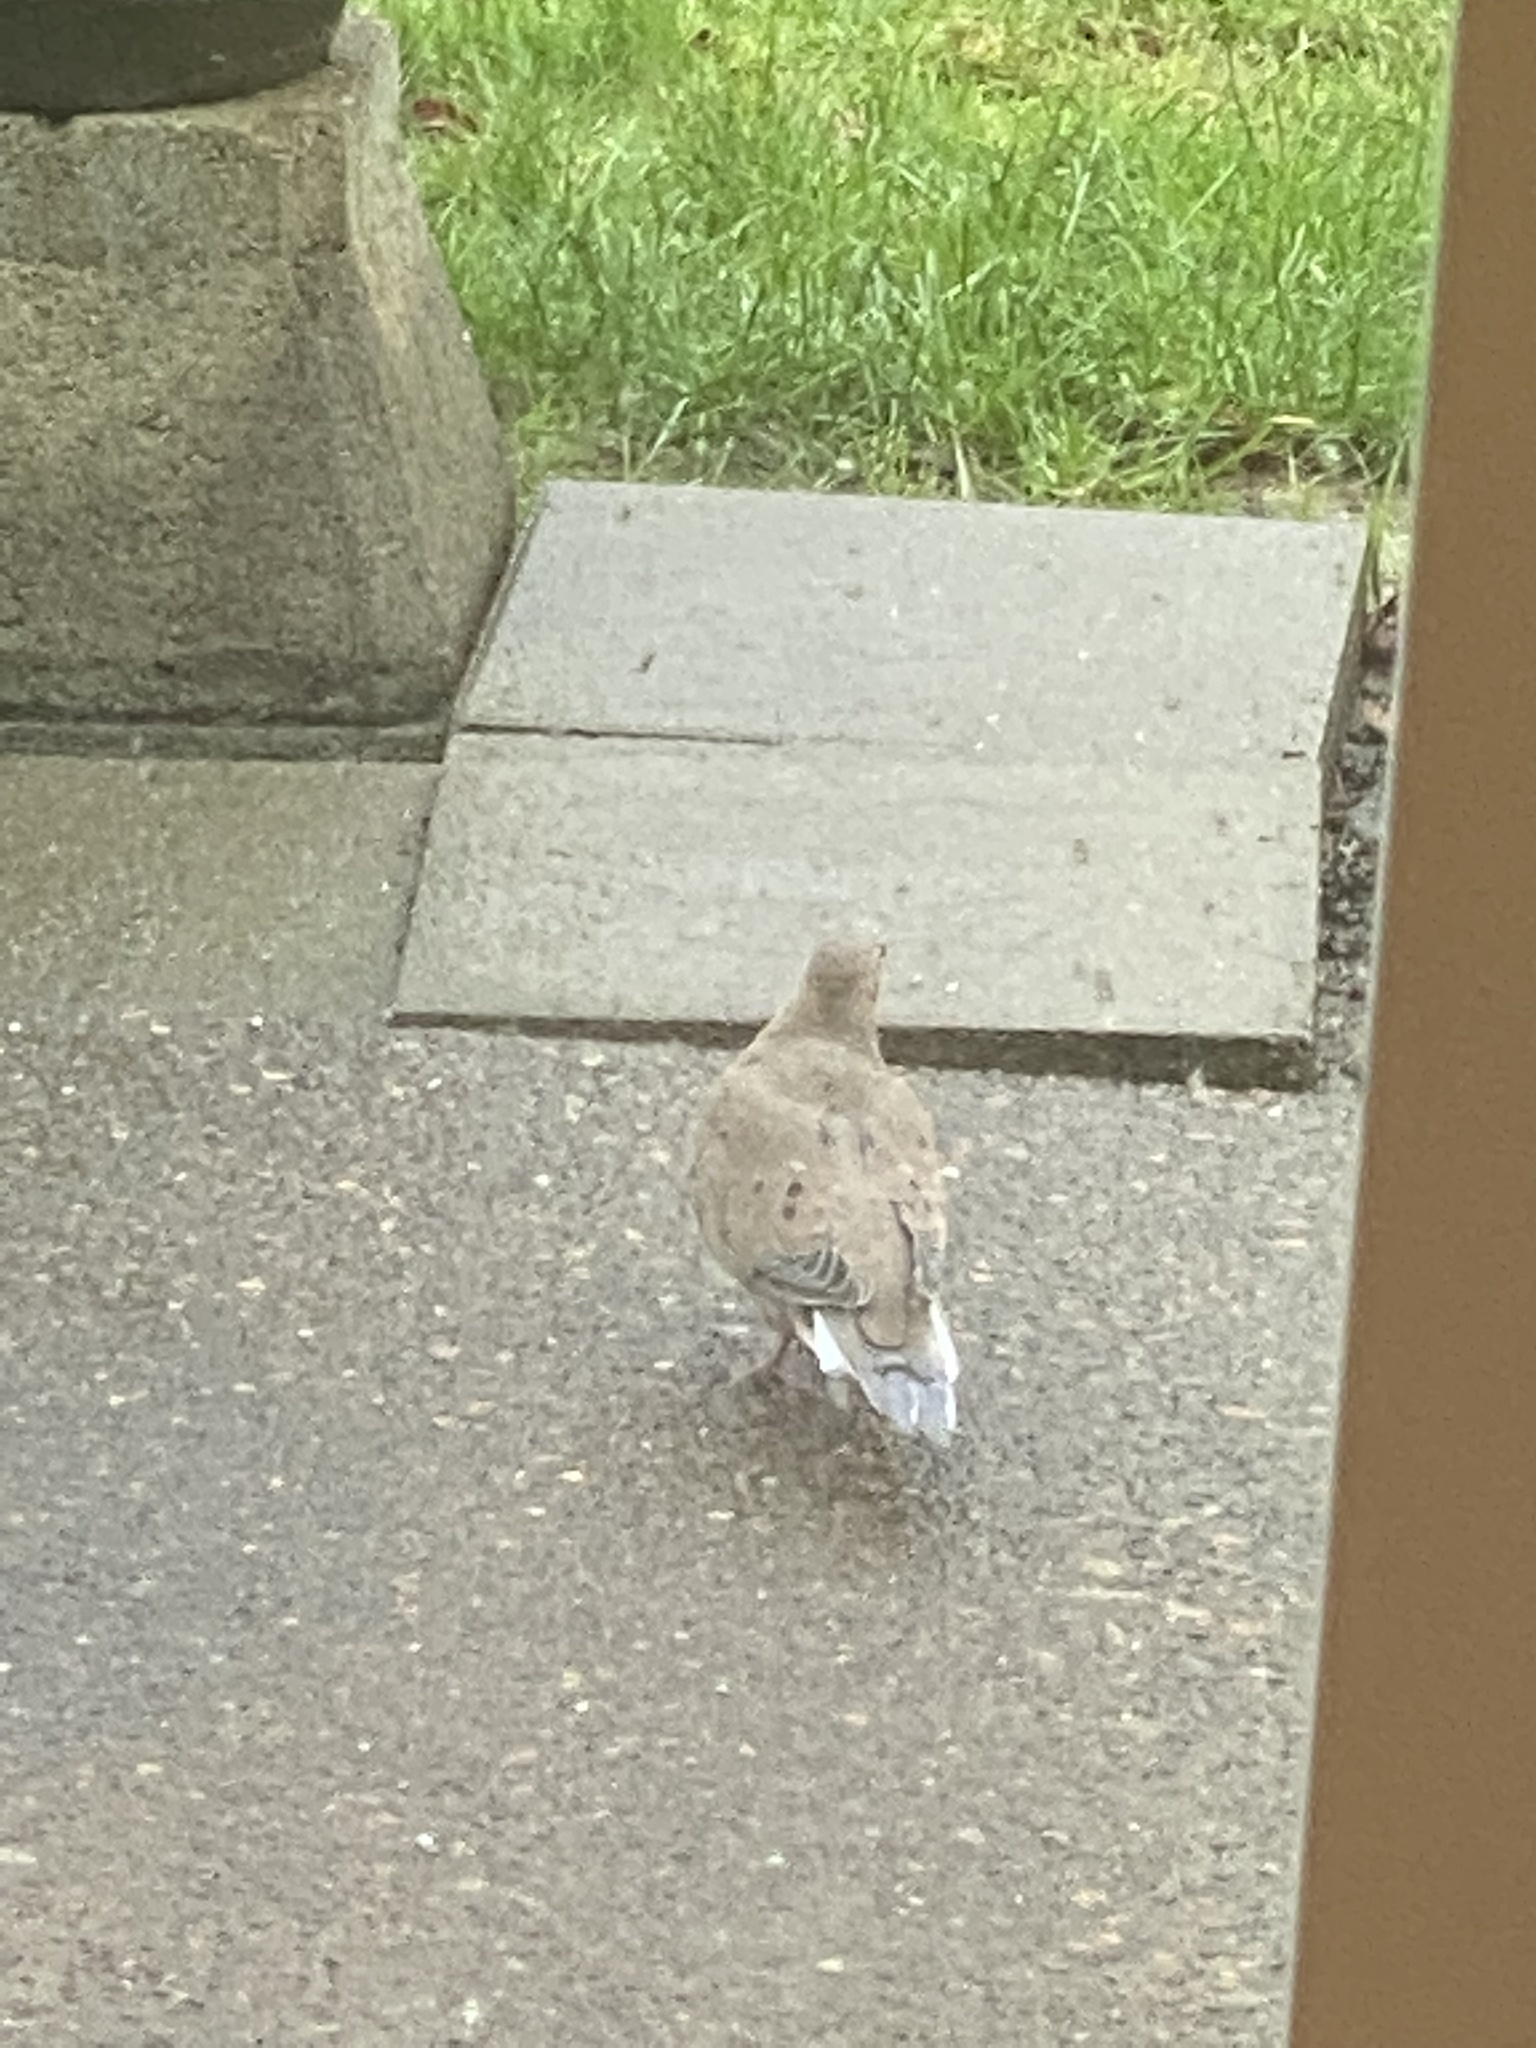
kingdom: Animalia
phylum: Chordata
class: Aves
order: Columbiformes
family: Columbidae
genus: Zenaida
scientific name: Zenaida macroura
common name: Mourning dove
